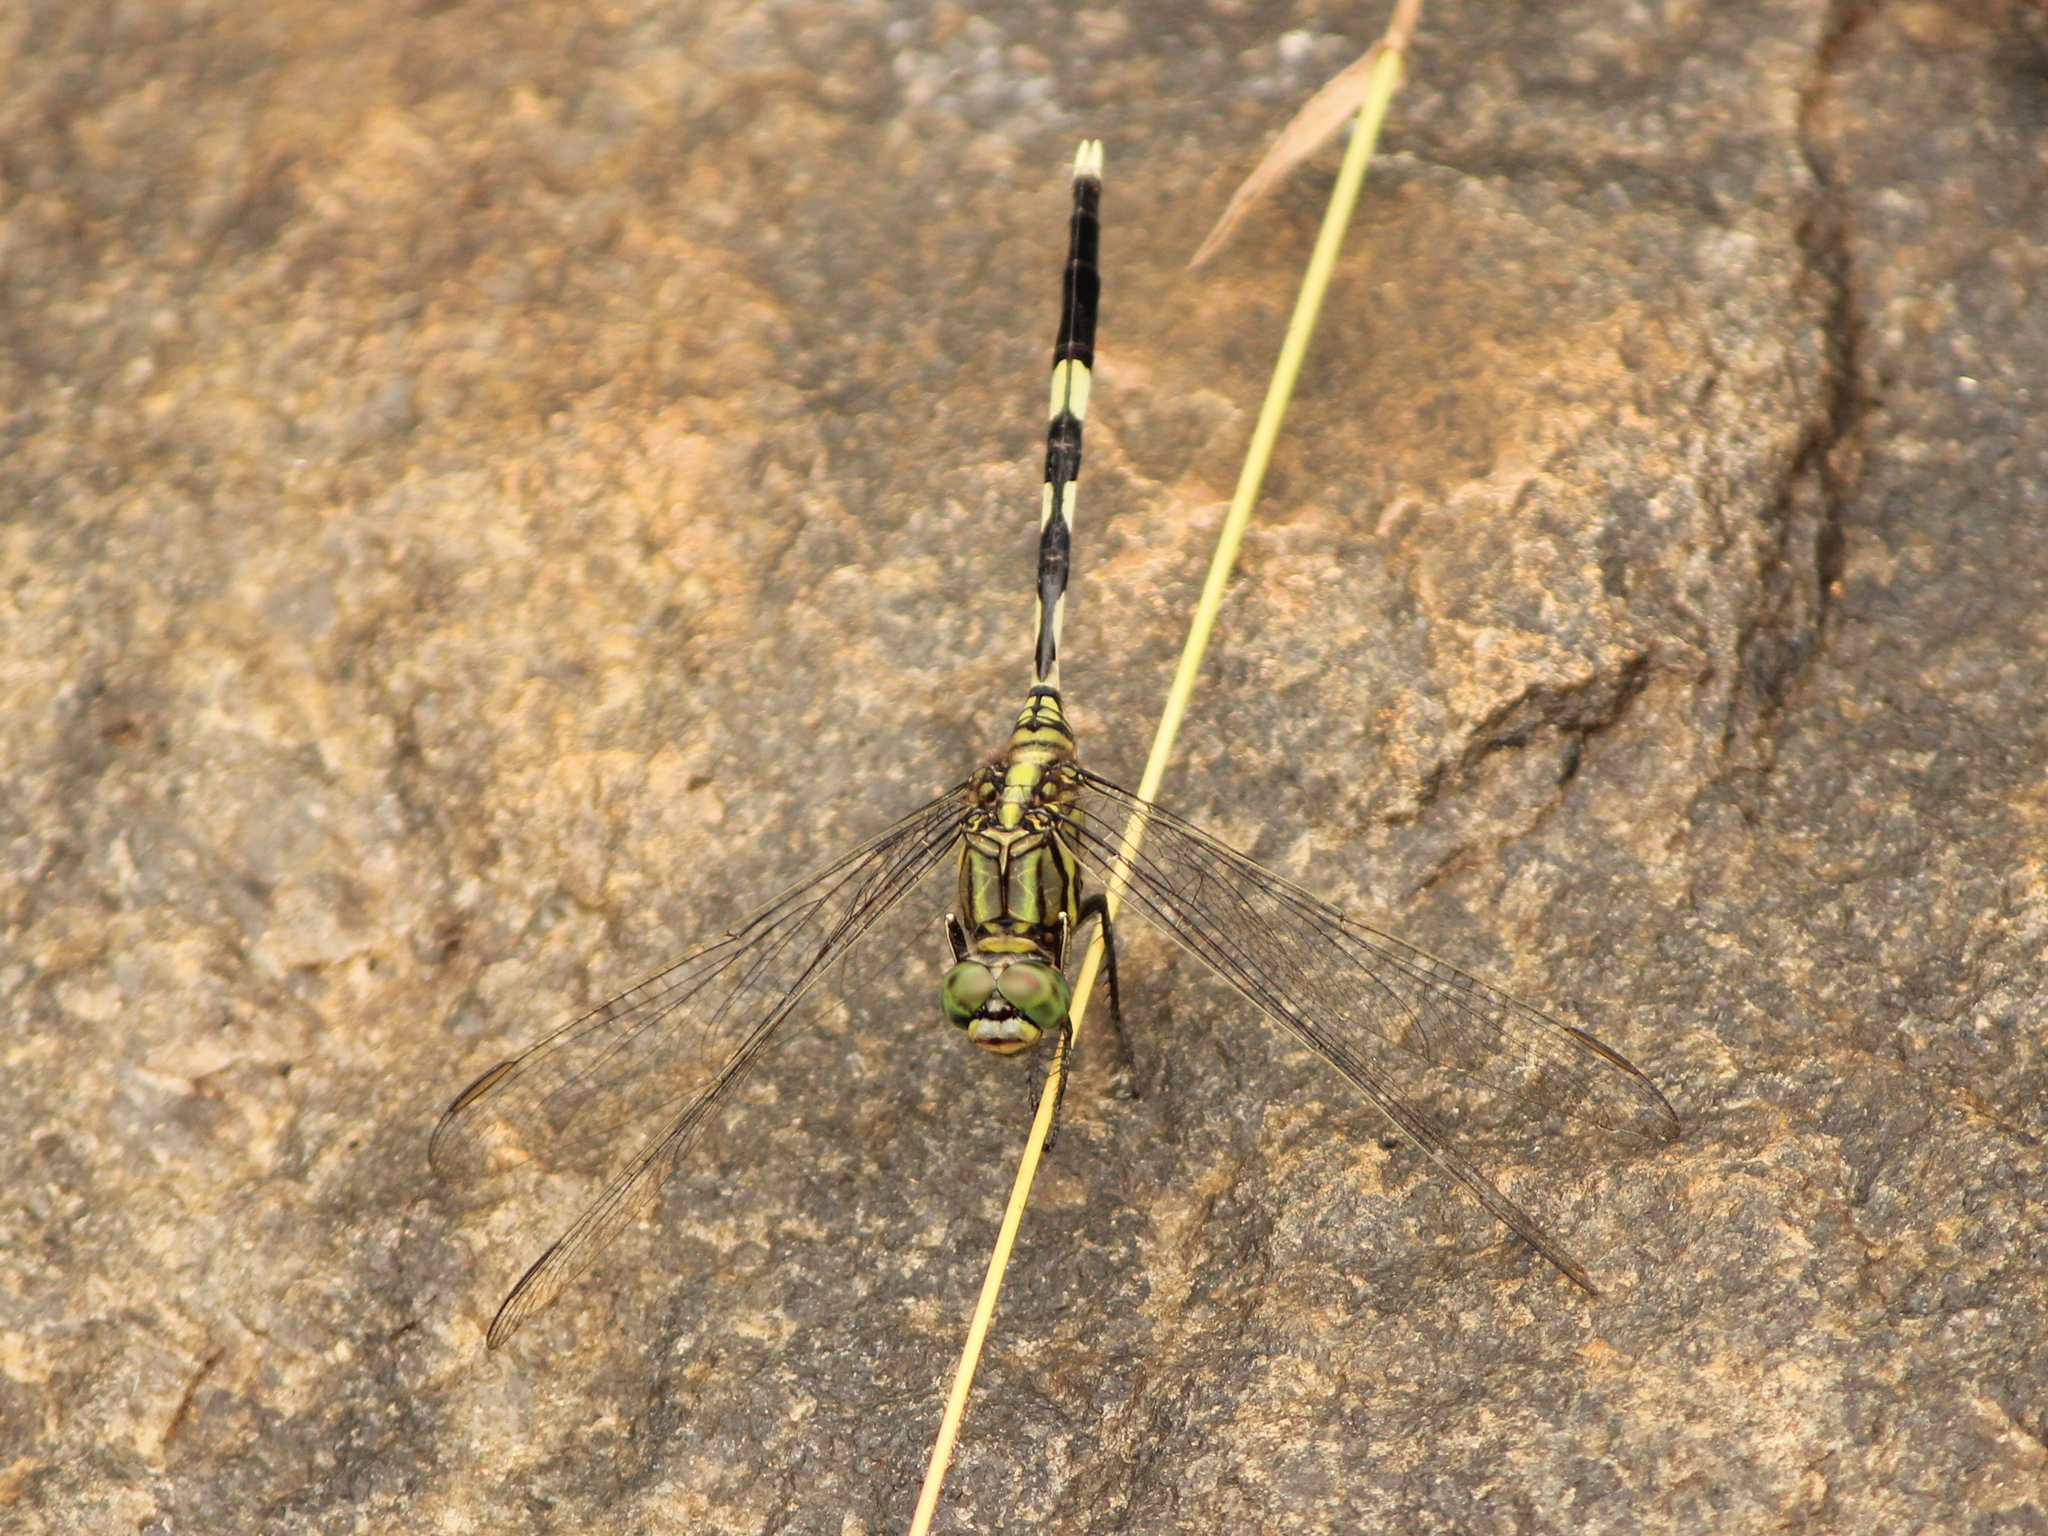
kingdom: Animalia
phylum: Arthropoda
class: Insecta
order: Odonata
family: Libellulidae
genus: Orthetrum
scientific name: Orthetrum sabina
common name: Slender skimmer
